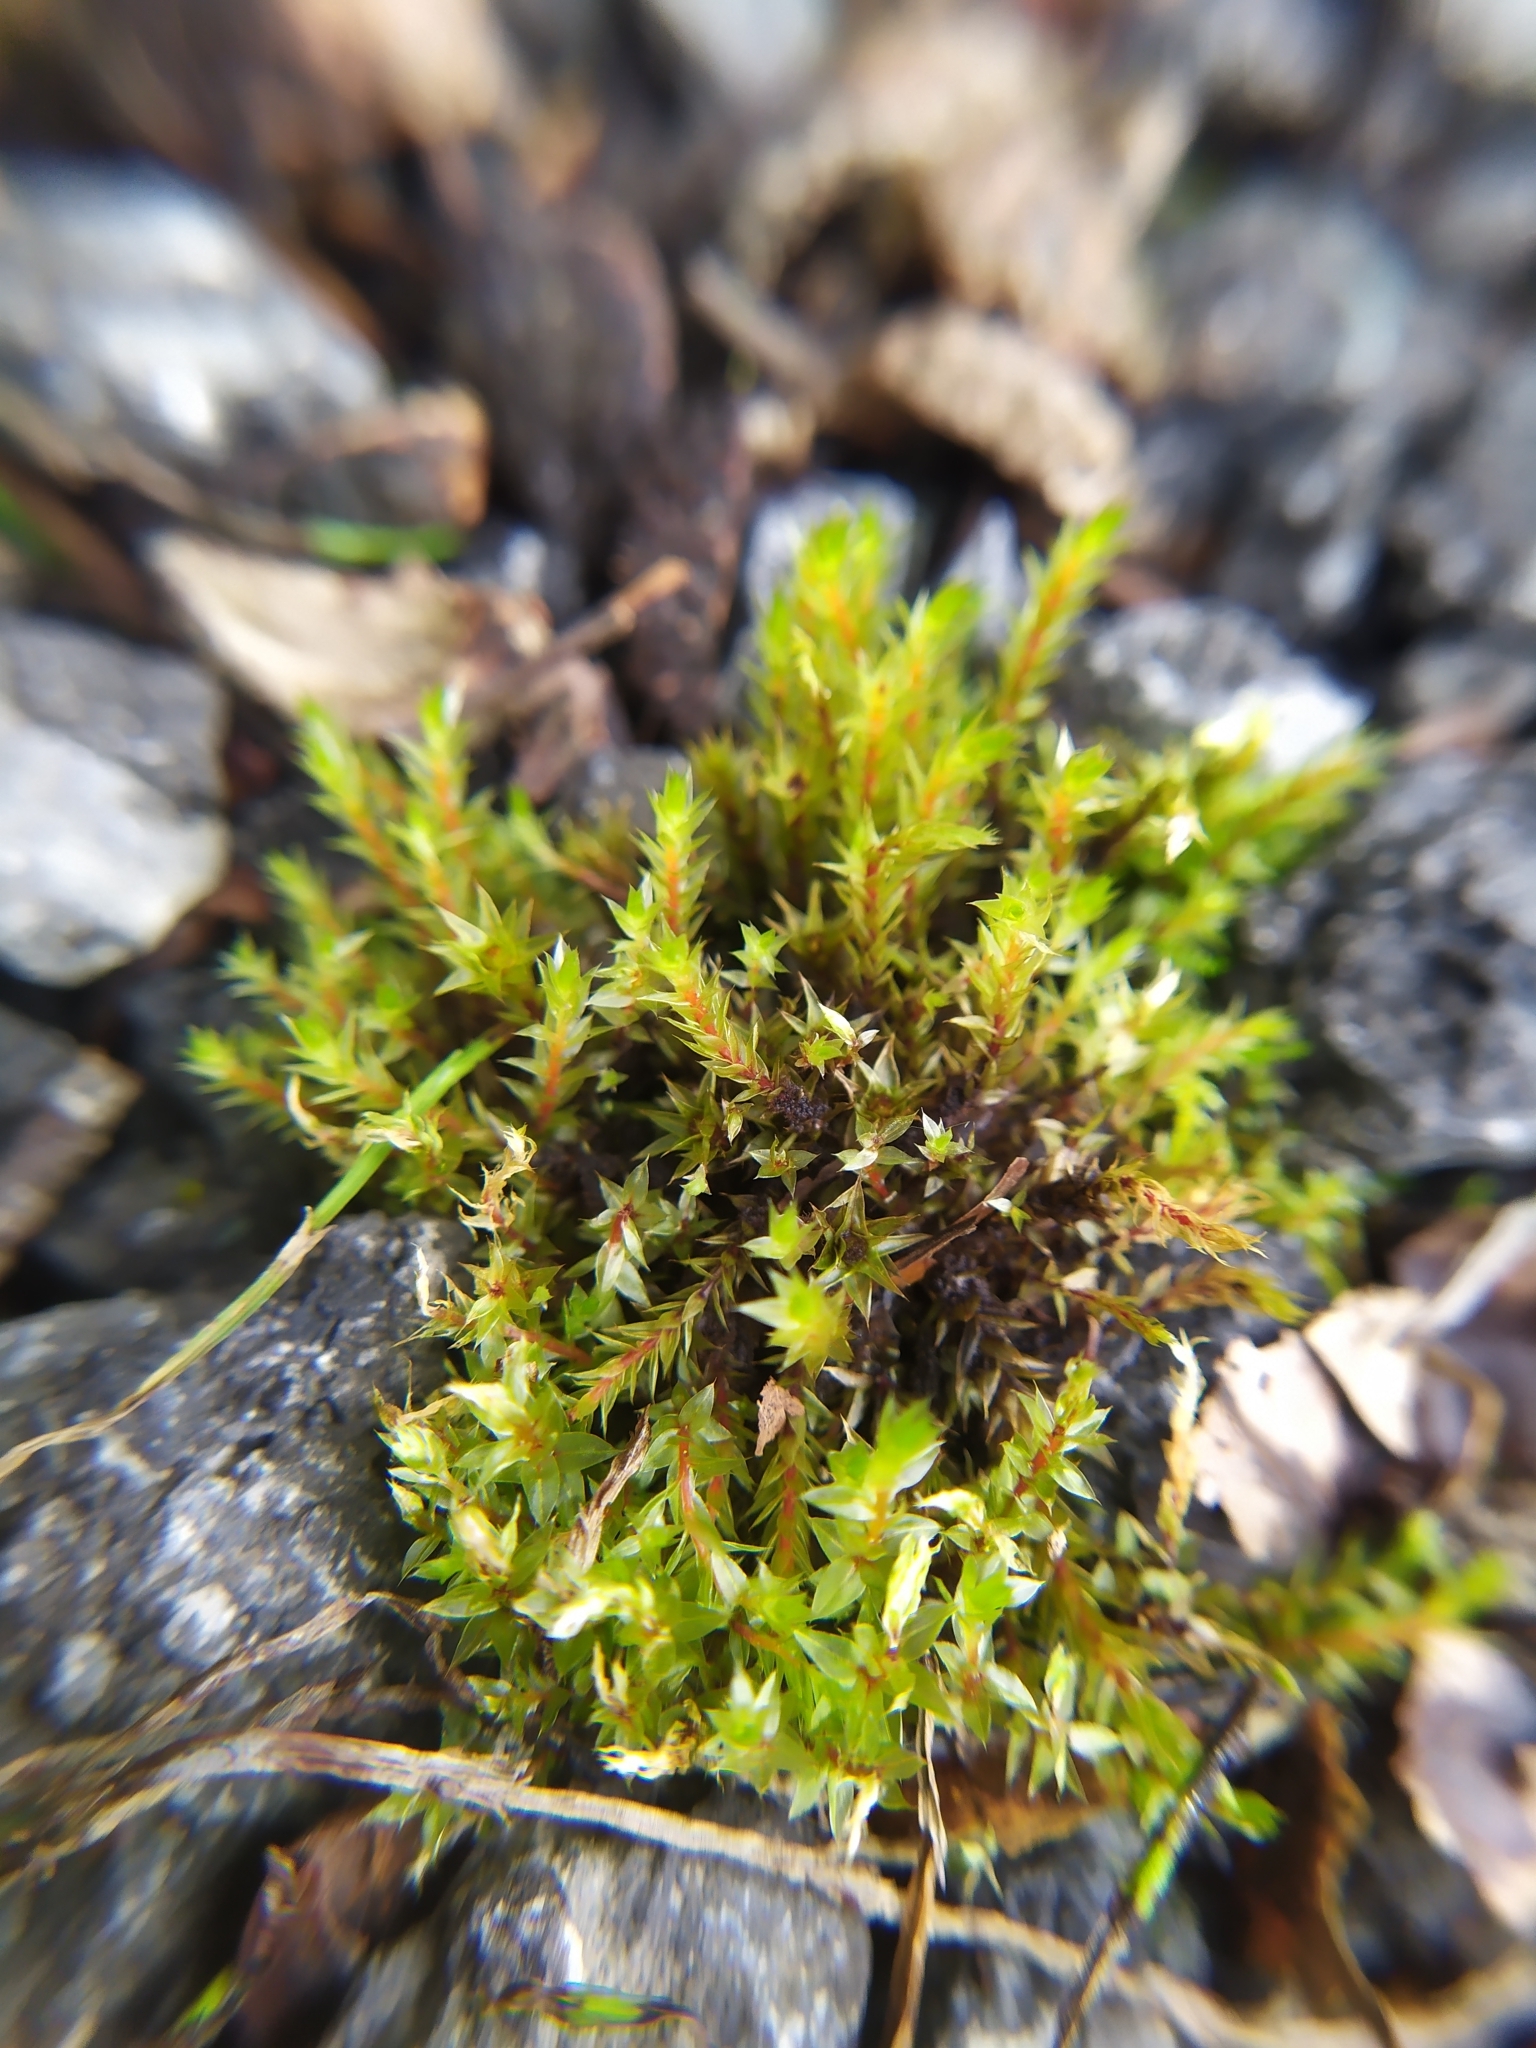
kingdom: Plantae
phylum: Bryophyta
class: Bryopsida
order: Bryales
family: Bryaceae
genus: Ptychostomum
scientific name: Ptychostomum pseudotriquetrum
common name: Long-leaved thread moss
